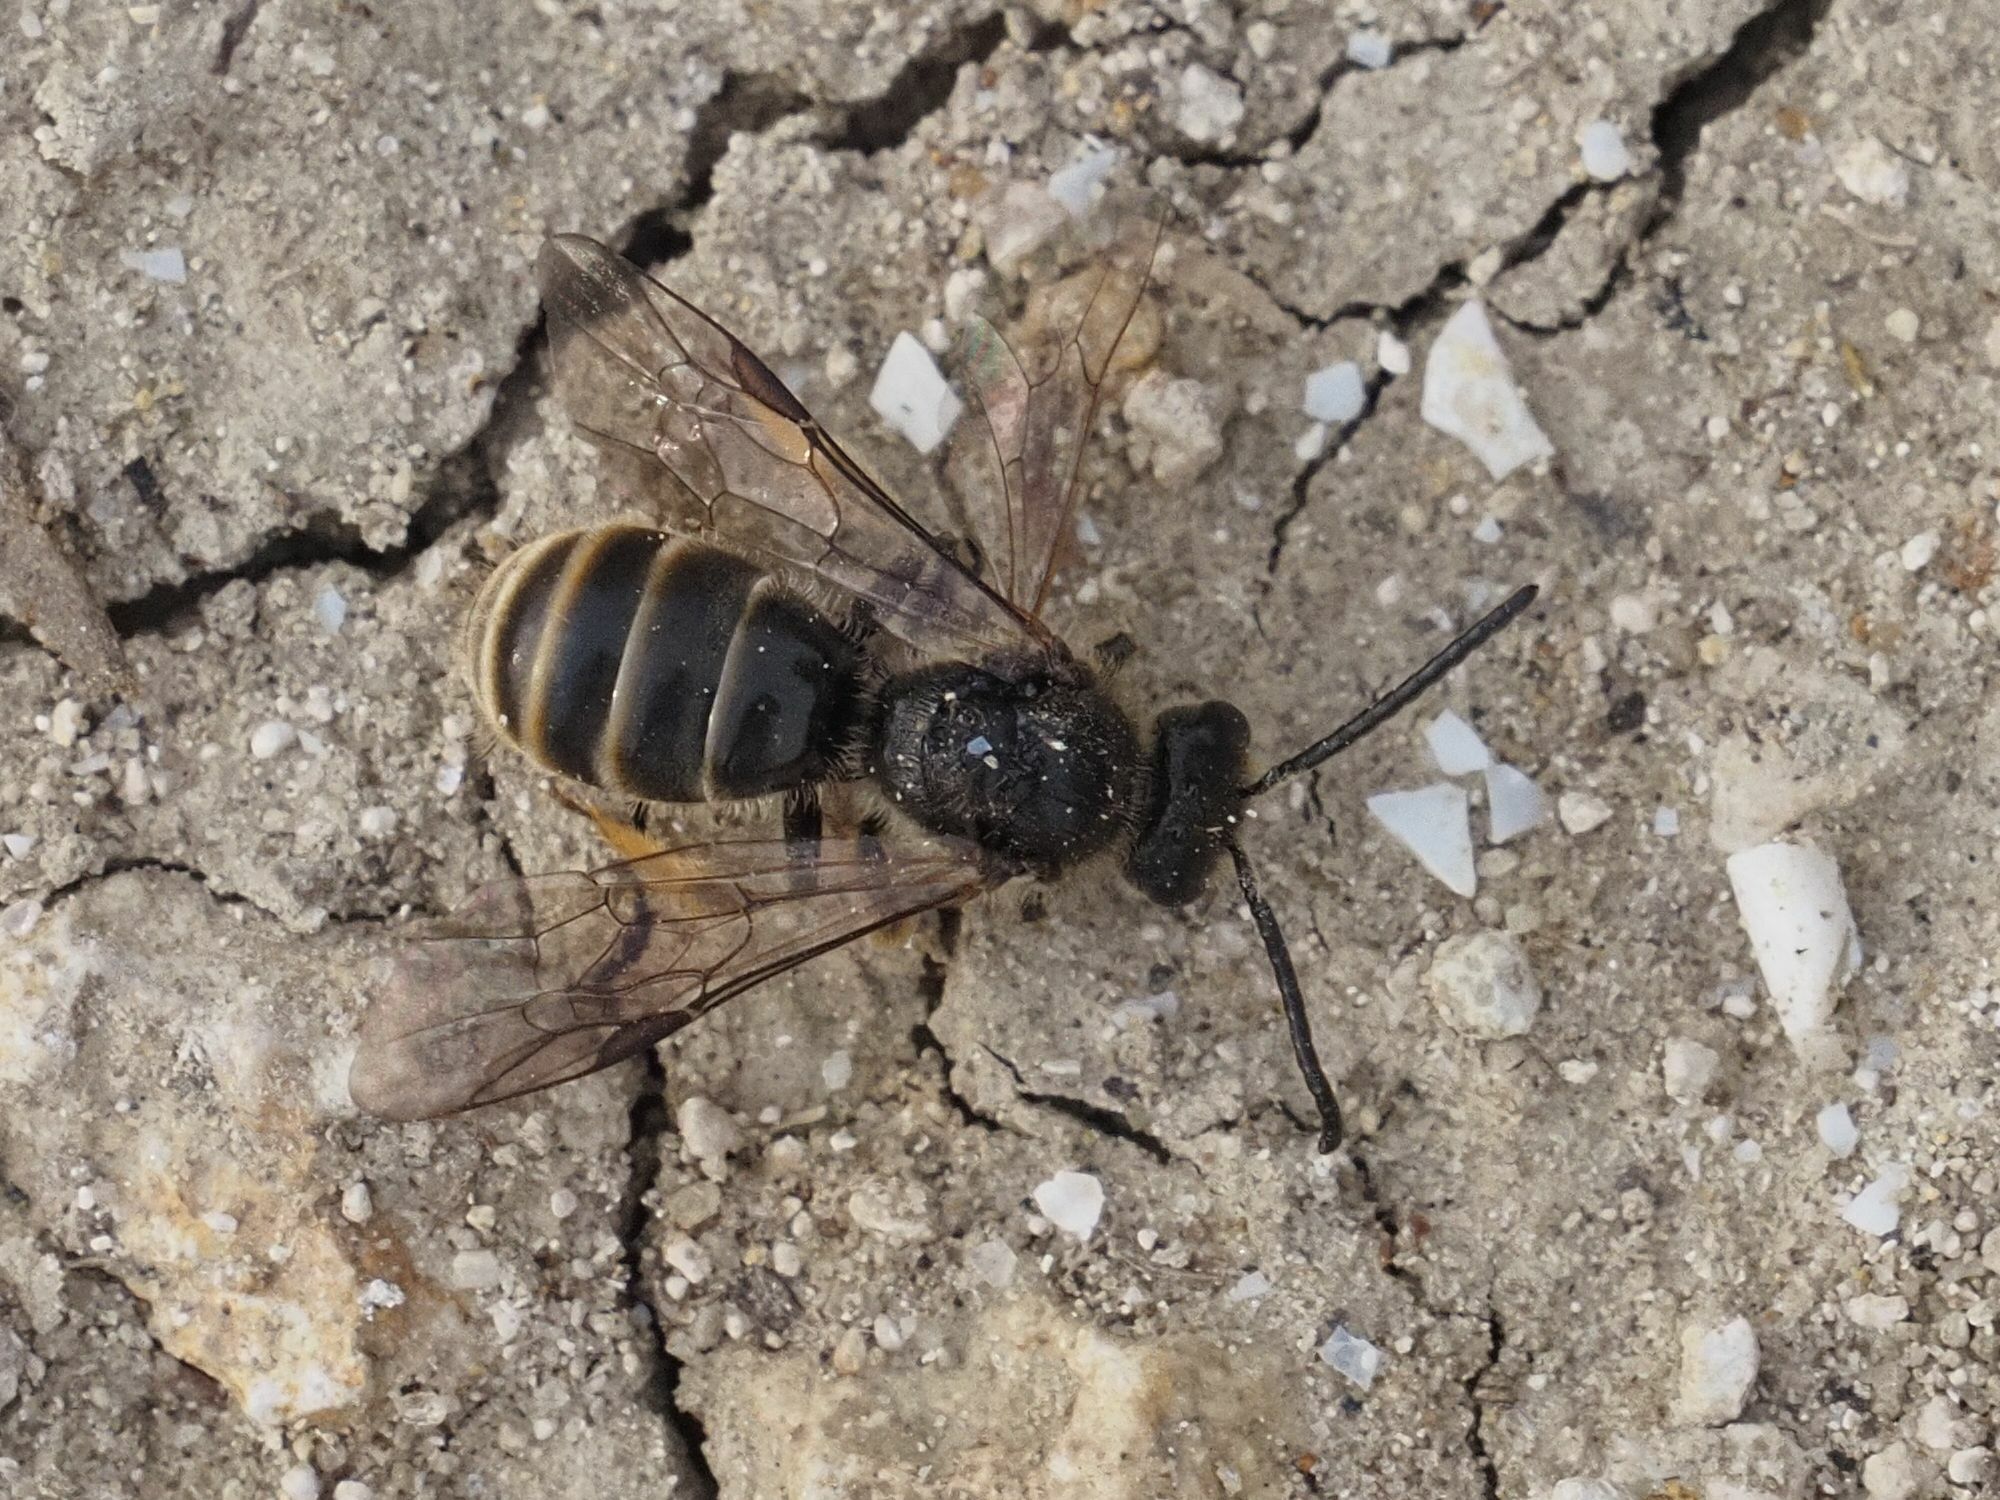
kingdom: Animalia
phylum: Arthropoda
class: Insecta
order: Hymenoptera
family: Halictidae
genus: Lasioglossum
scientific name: Lasioglossum marginatum
